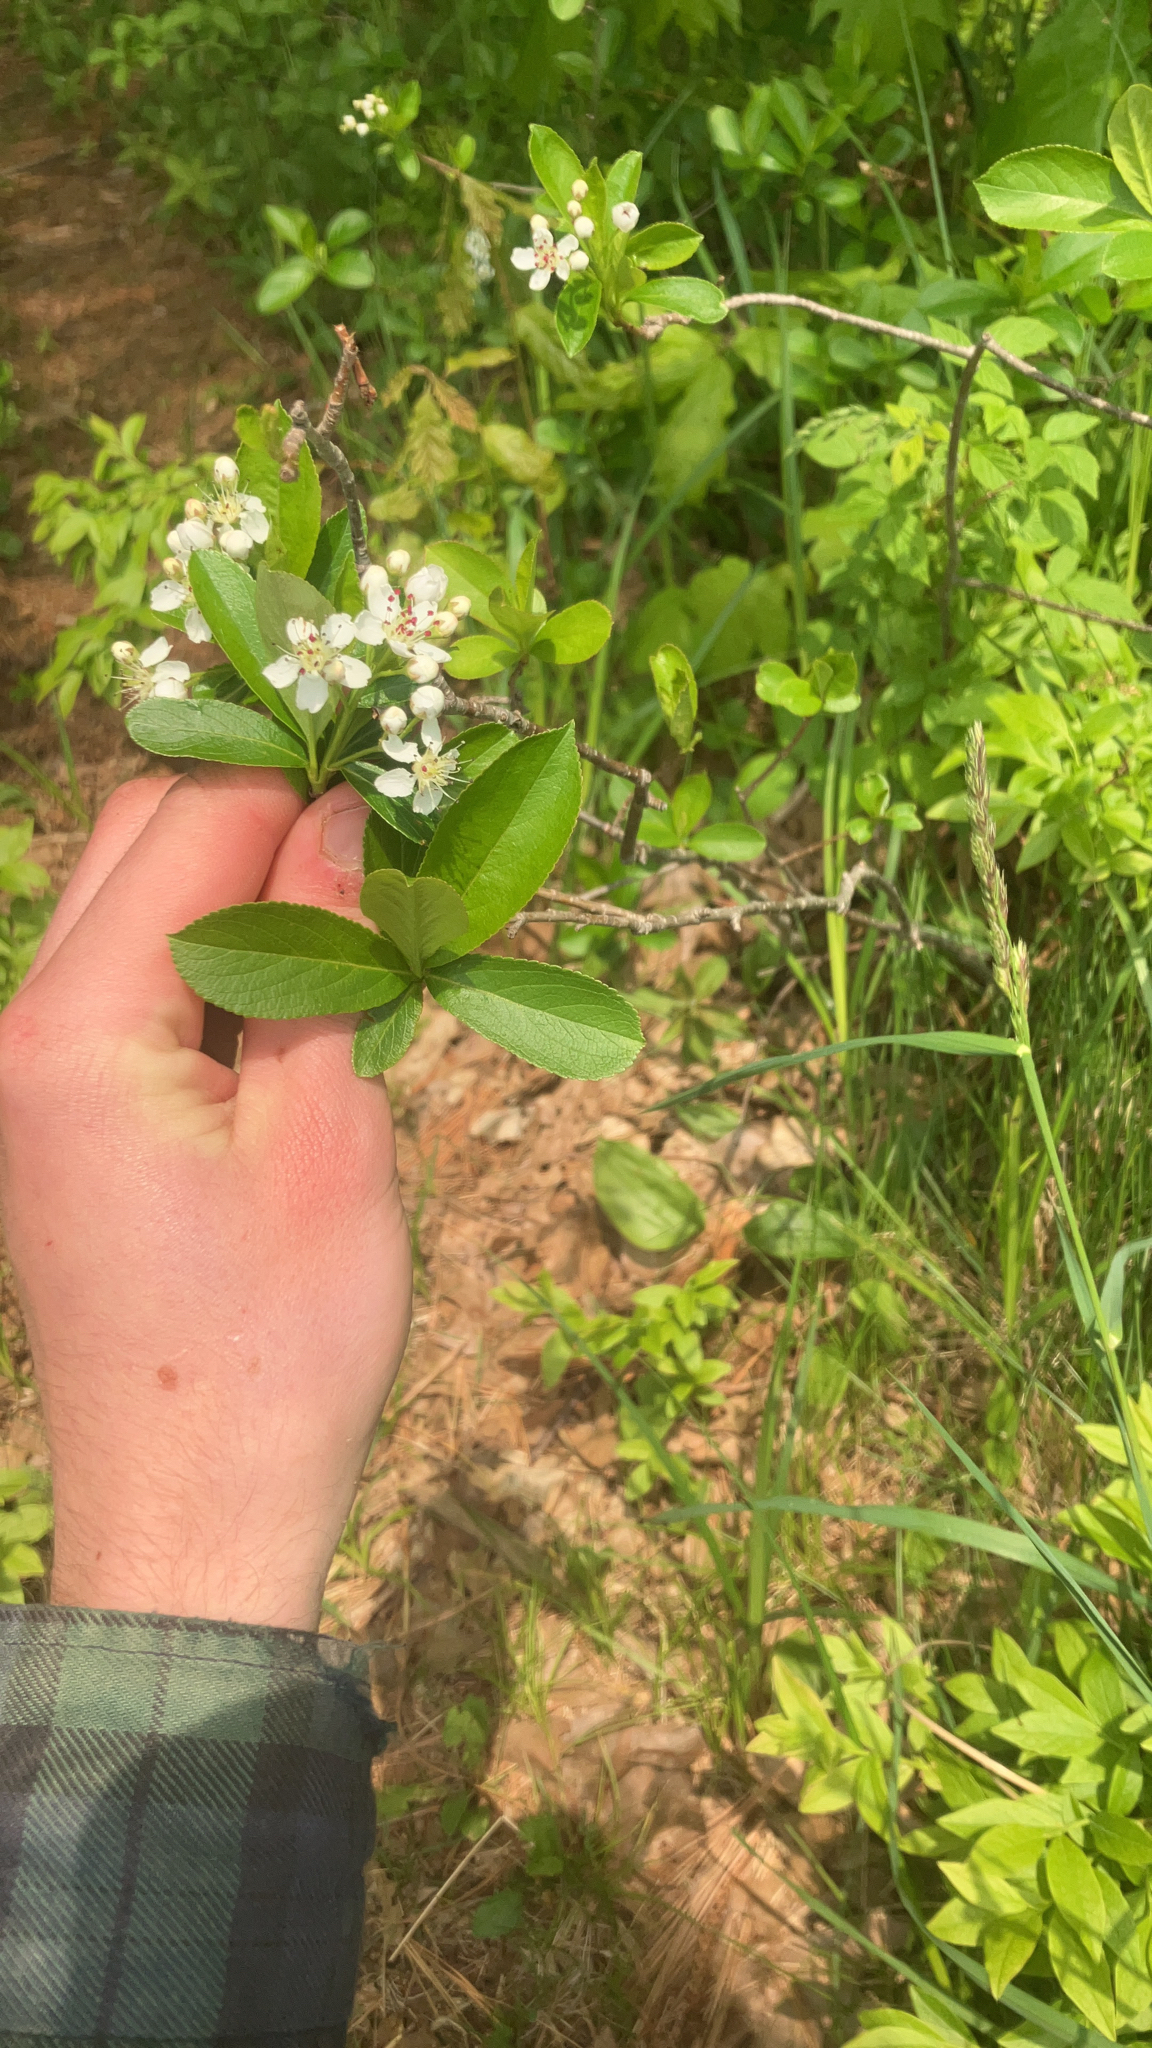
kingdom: Plantae
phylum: Tracheophyta
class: Magnoliopsida
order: Rosales
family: Rosaceae
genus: Aronia
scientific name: Aronia melanocarpa
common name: Black chokeberry
